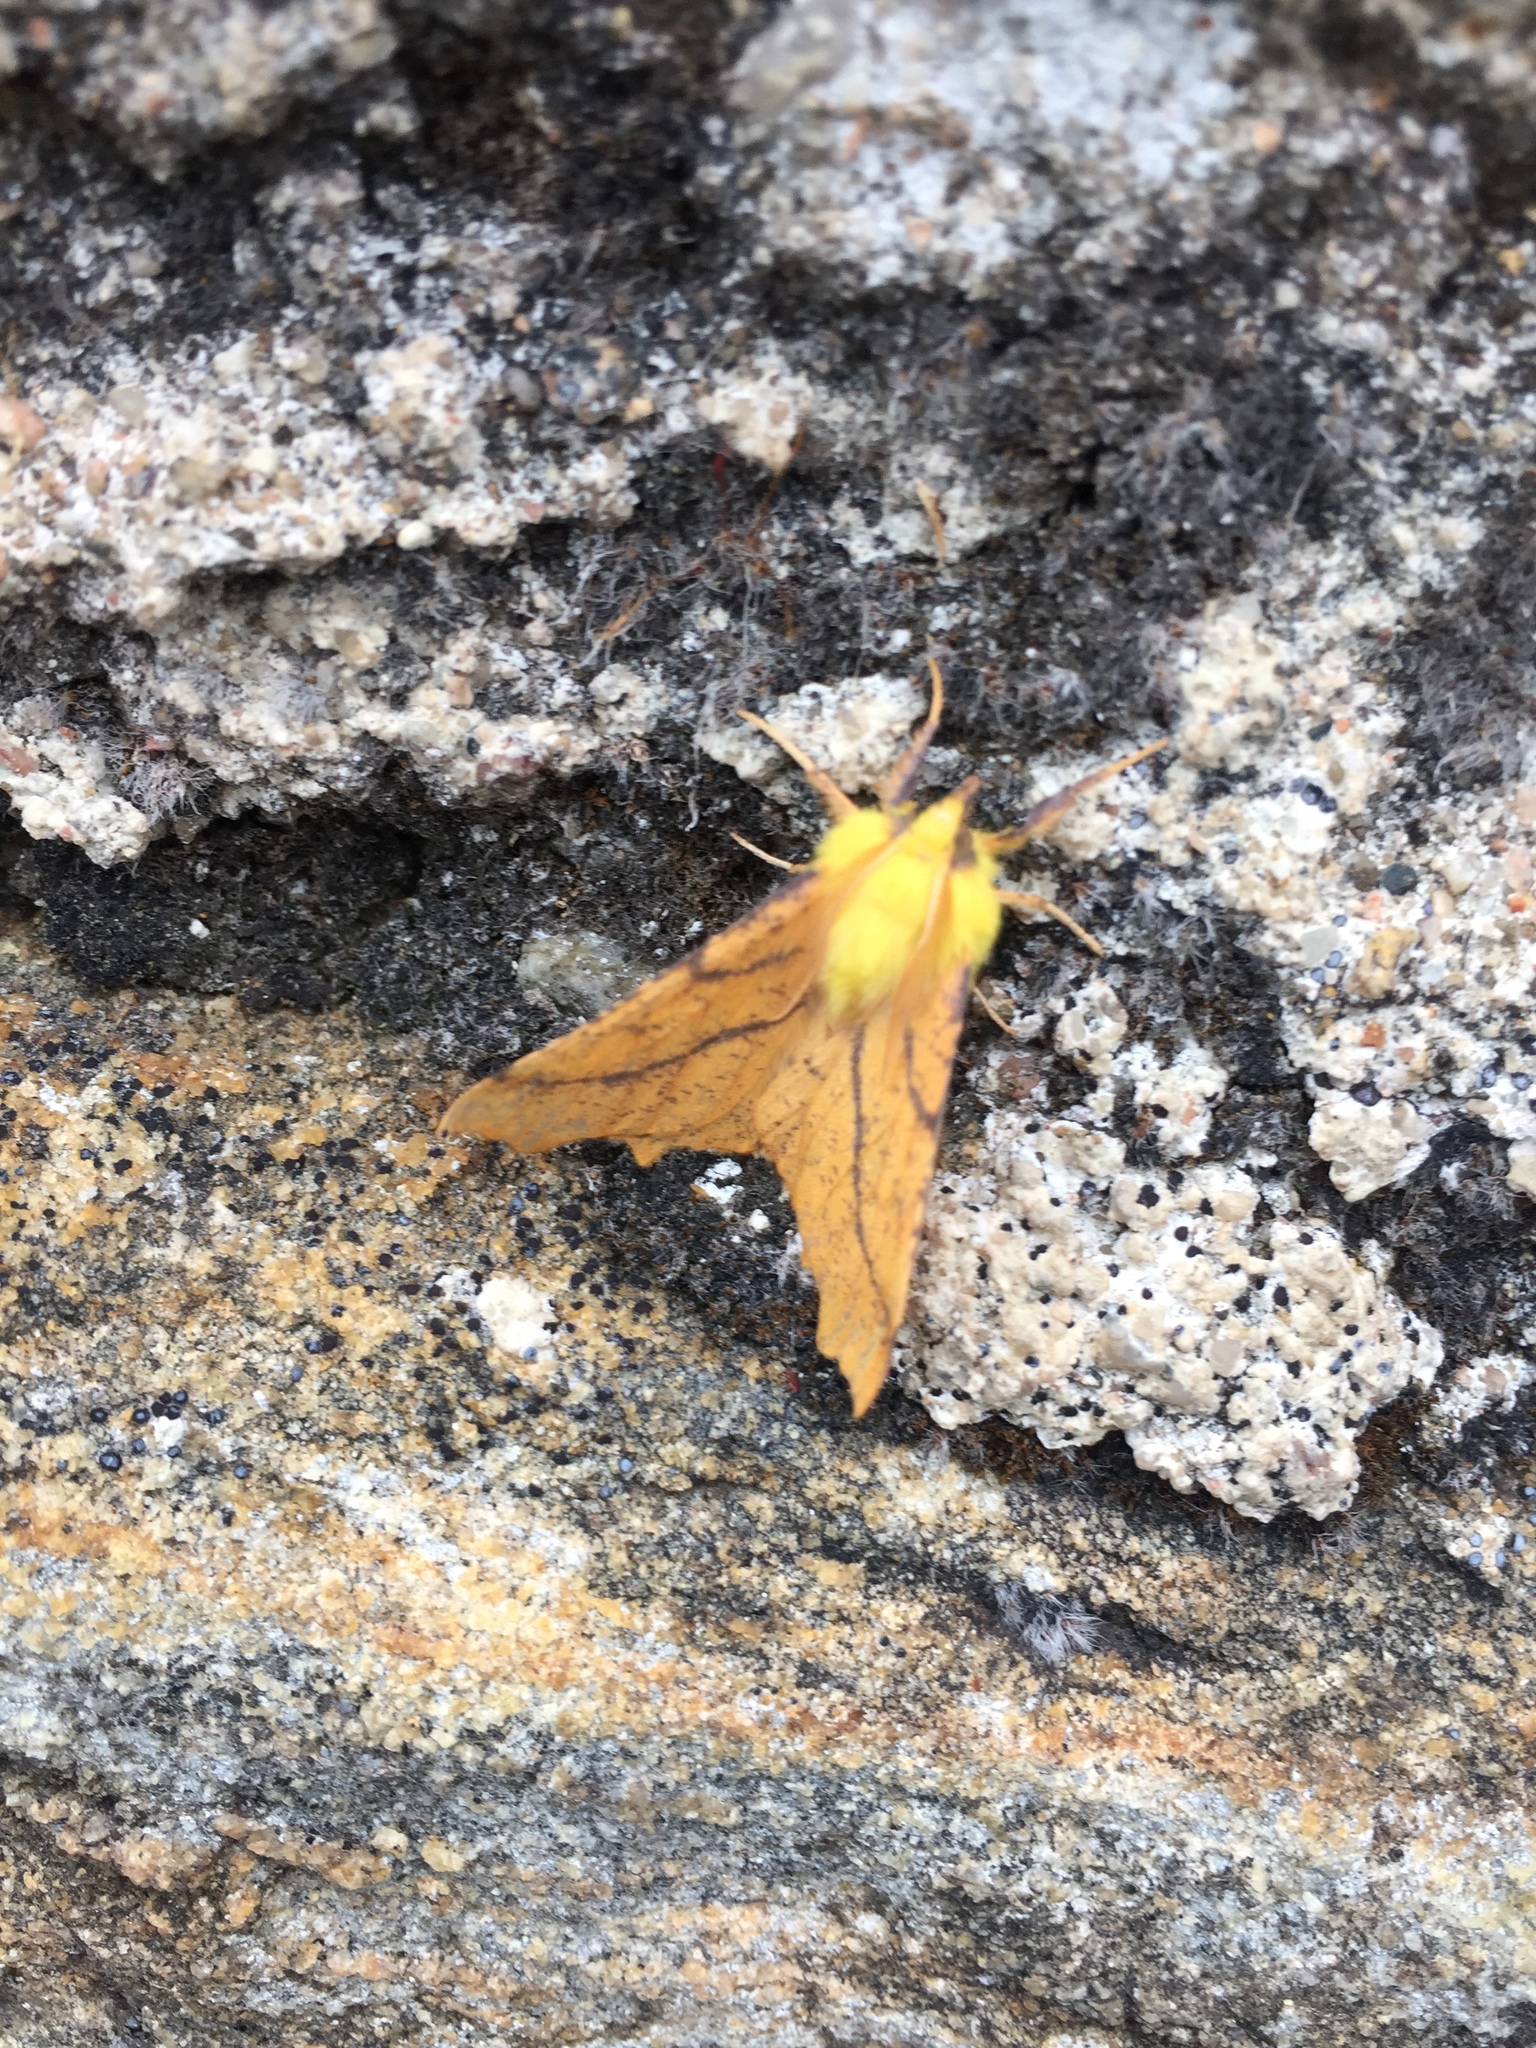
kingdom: Animalia
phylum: Arthropoda
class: Insecta
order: Lepidoptera
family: Geometridae
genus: Ennomos
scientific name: Ennomos alniaria
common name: Canary-shouldered thorn
